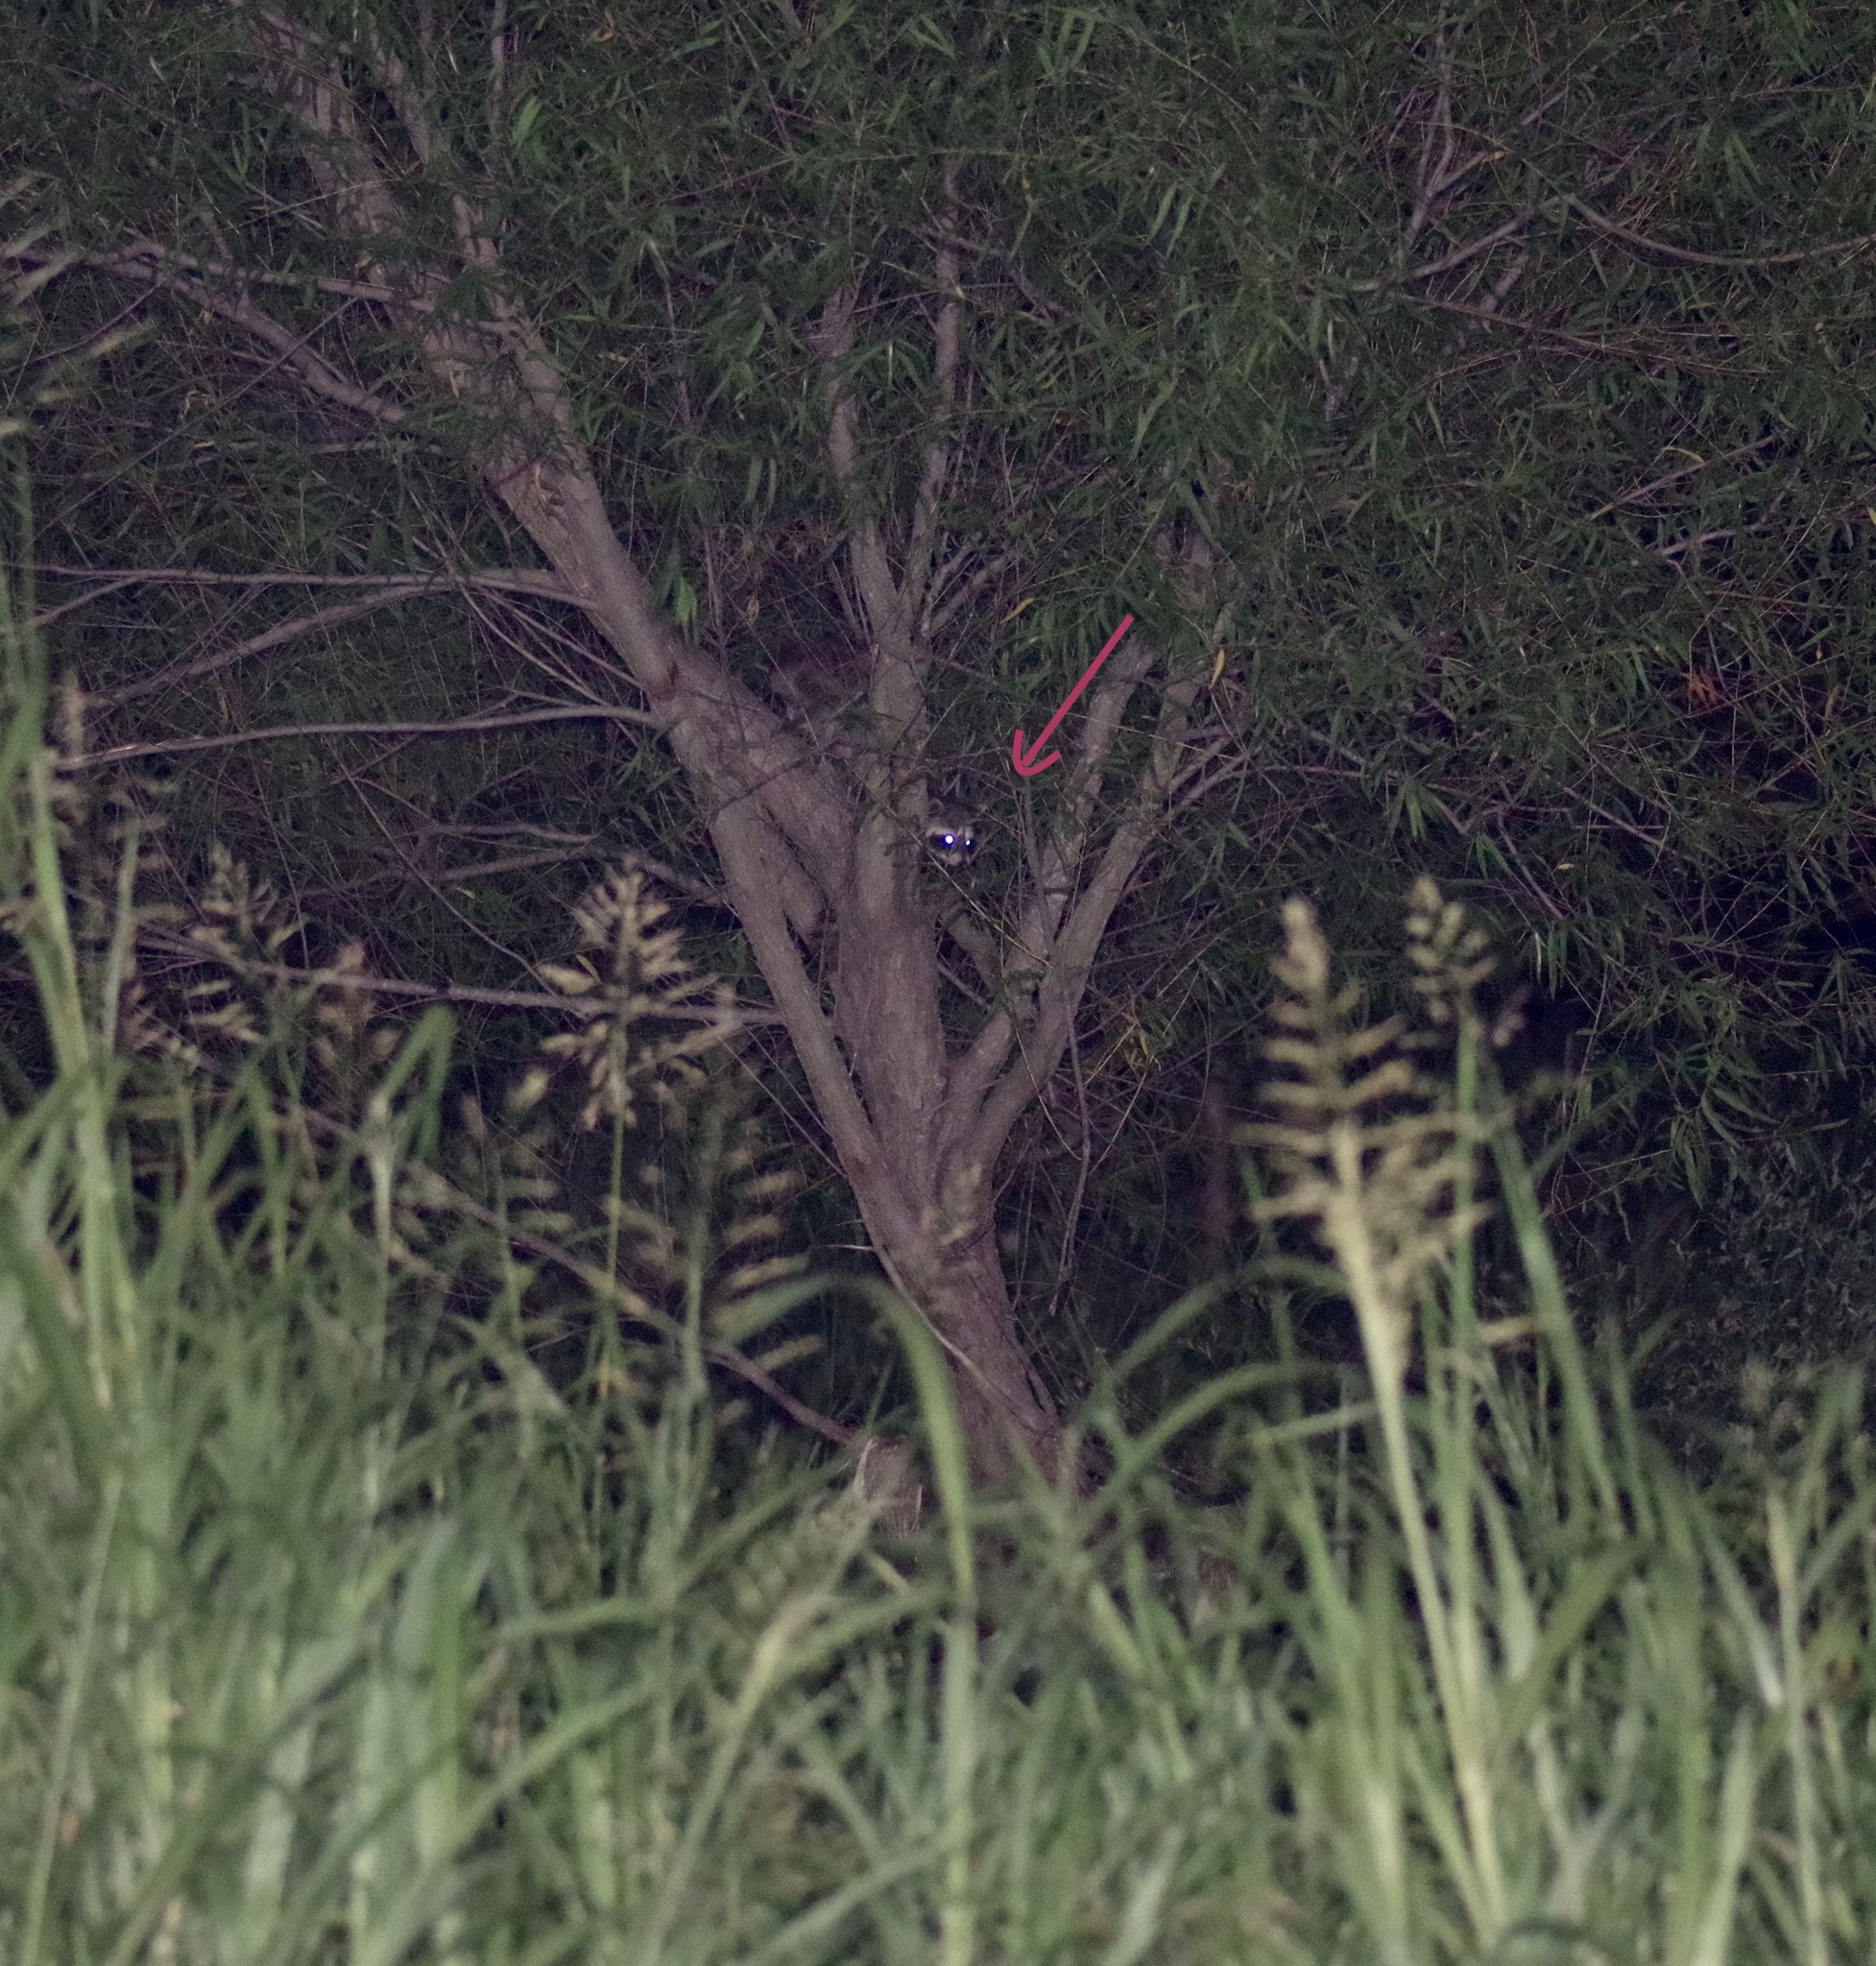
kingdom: Animalia
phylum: Chordata
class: Mammalia
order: Carnivora
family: Procyonidae
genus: Procyon
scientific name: Procyon lotor
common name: Raccoon
